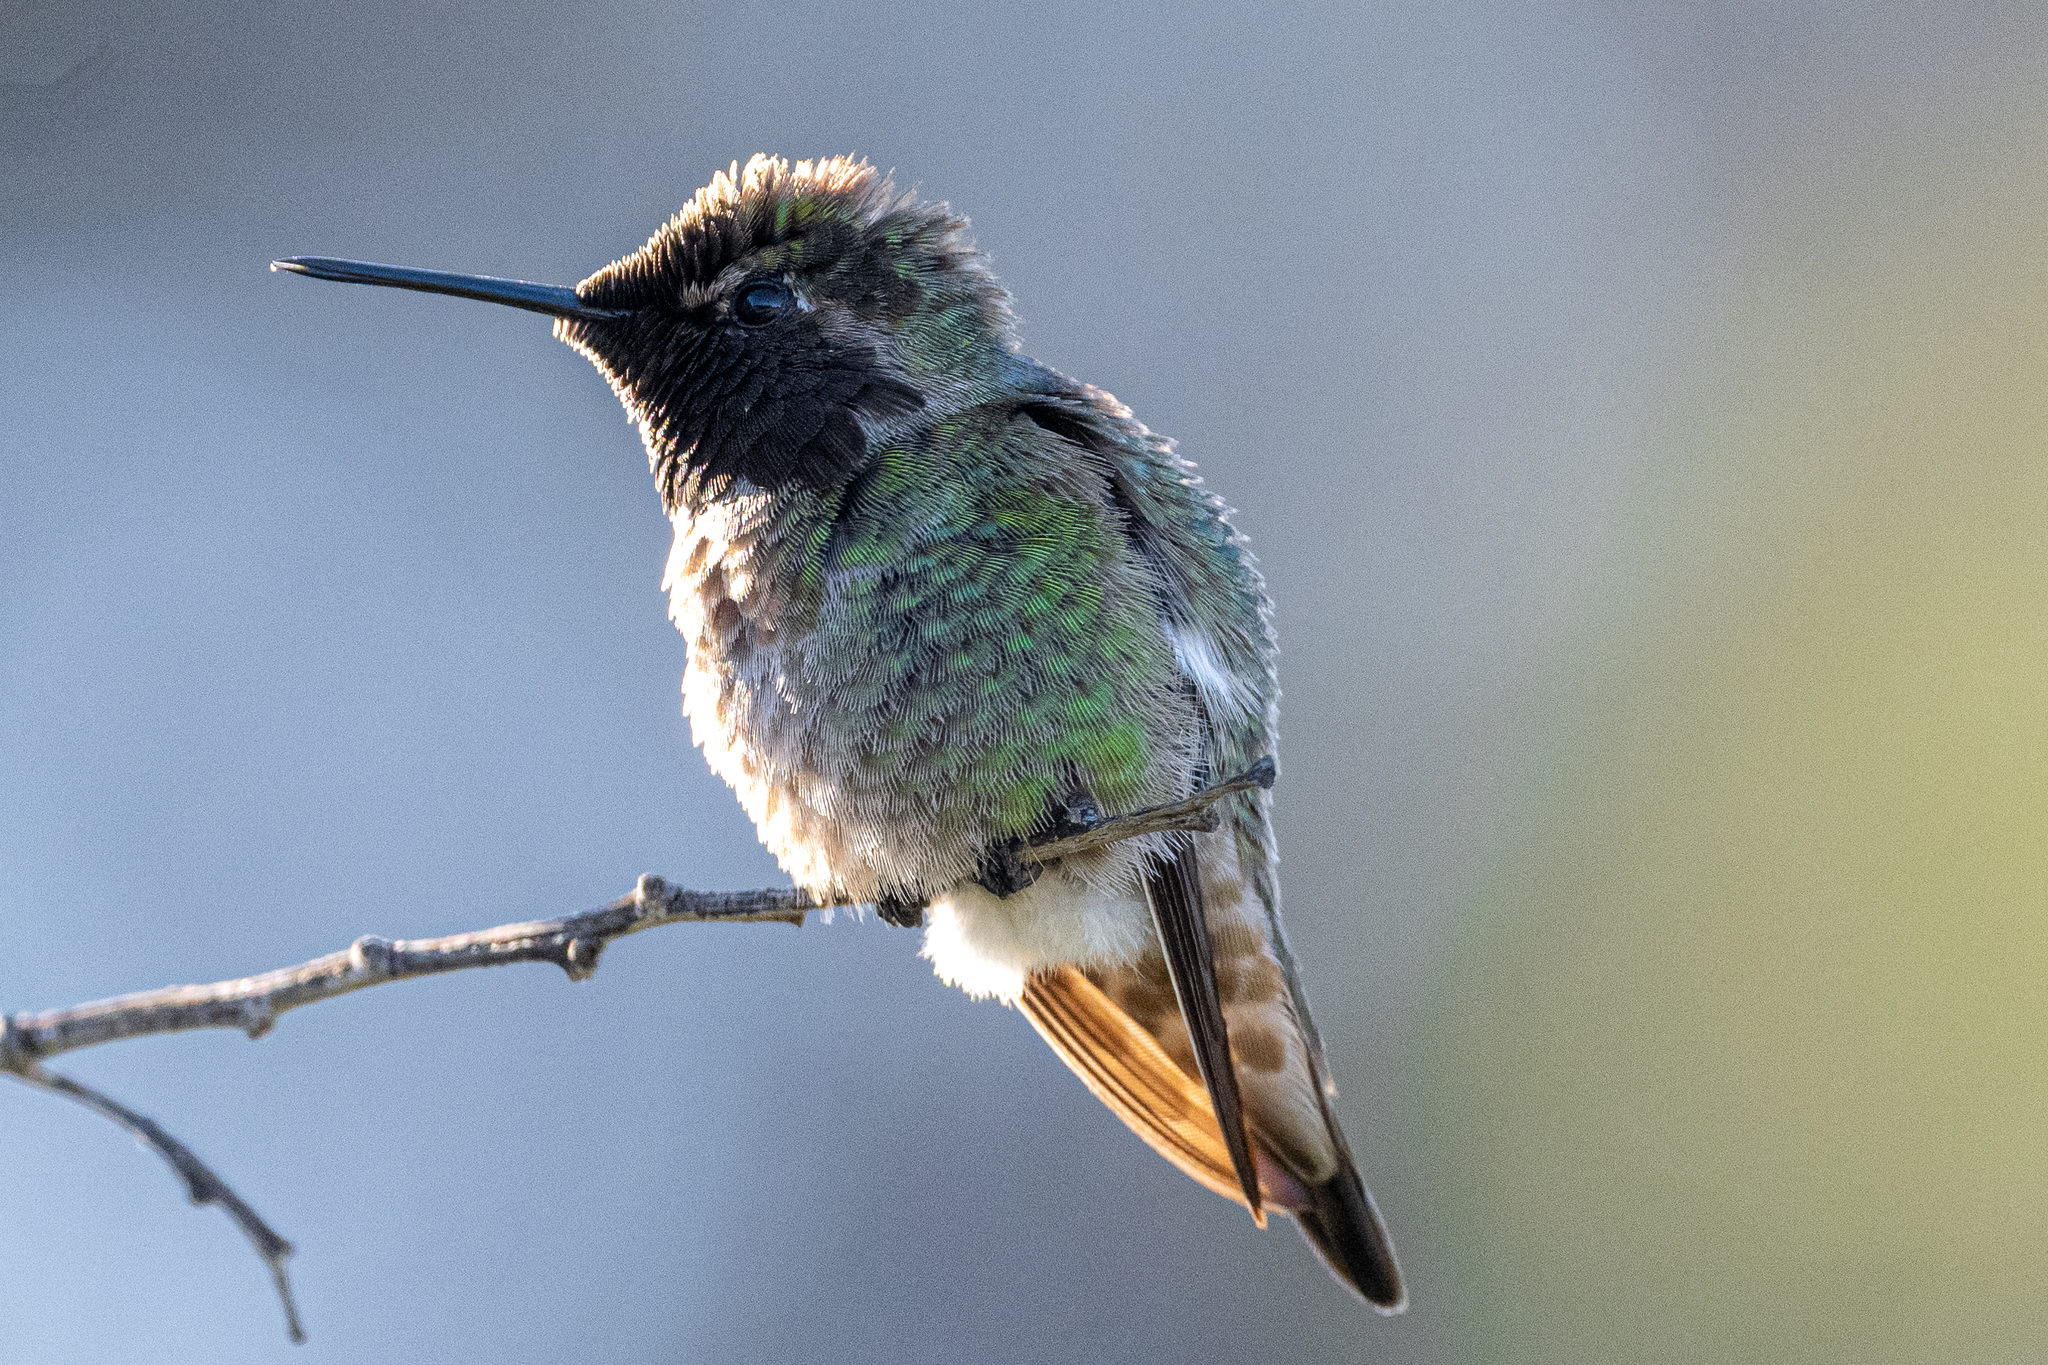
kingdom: Animalia
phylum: Chordata
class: Aves
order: Apodiformes
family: Trochilidae
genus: Calypte
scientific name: Calypte anna
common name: Anna's hummingbird
